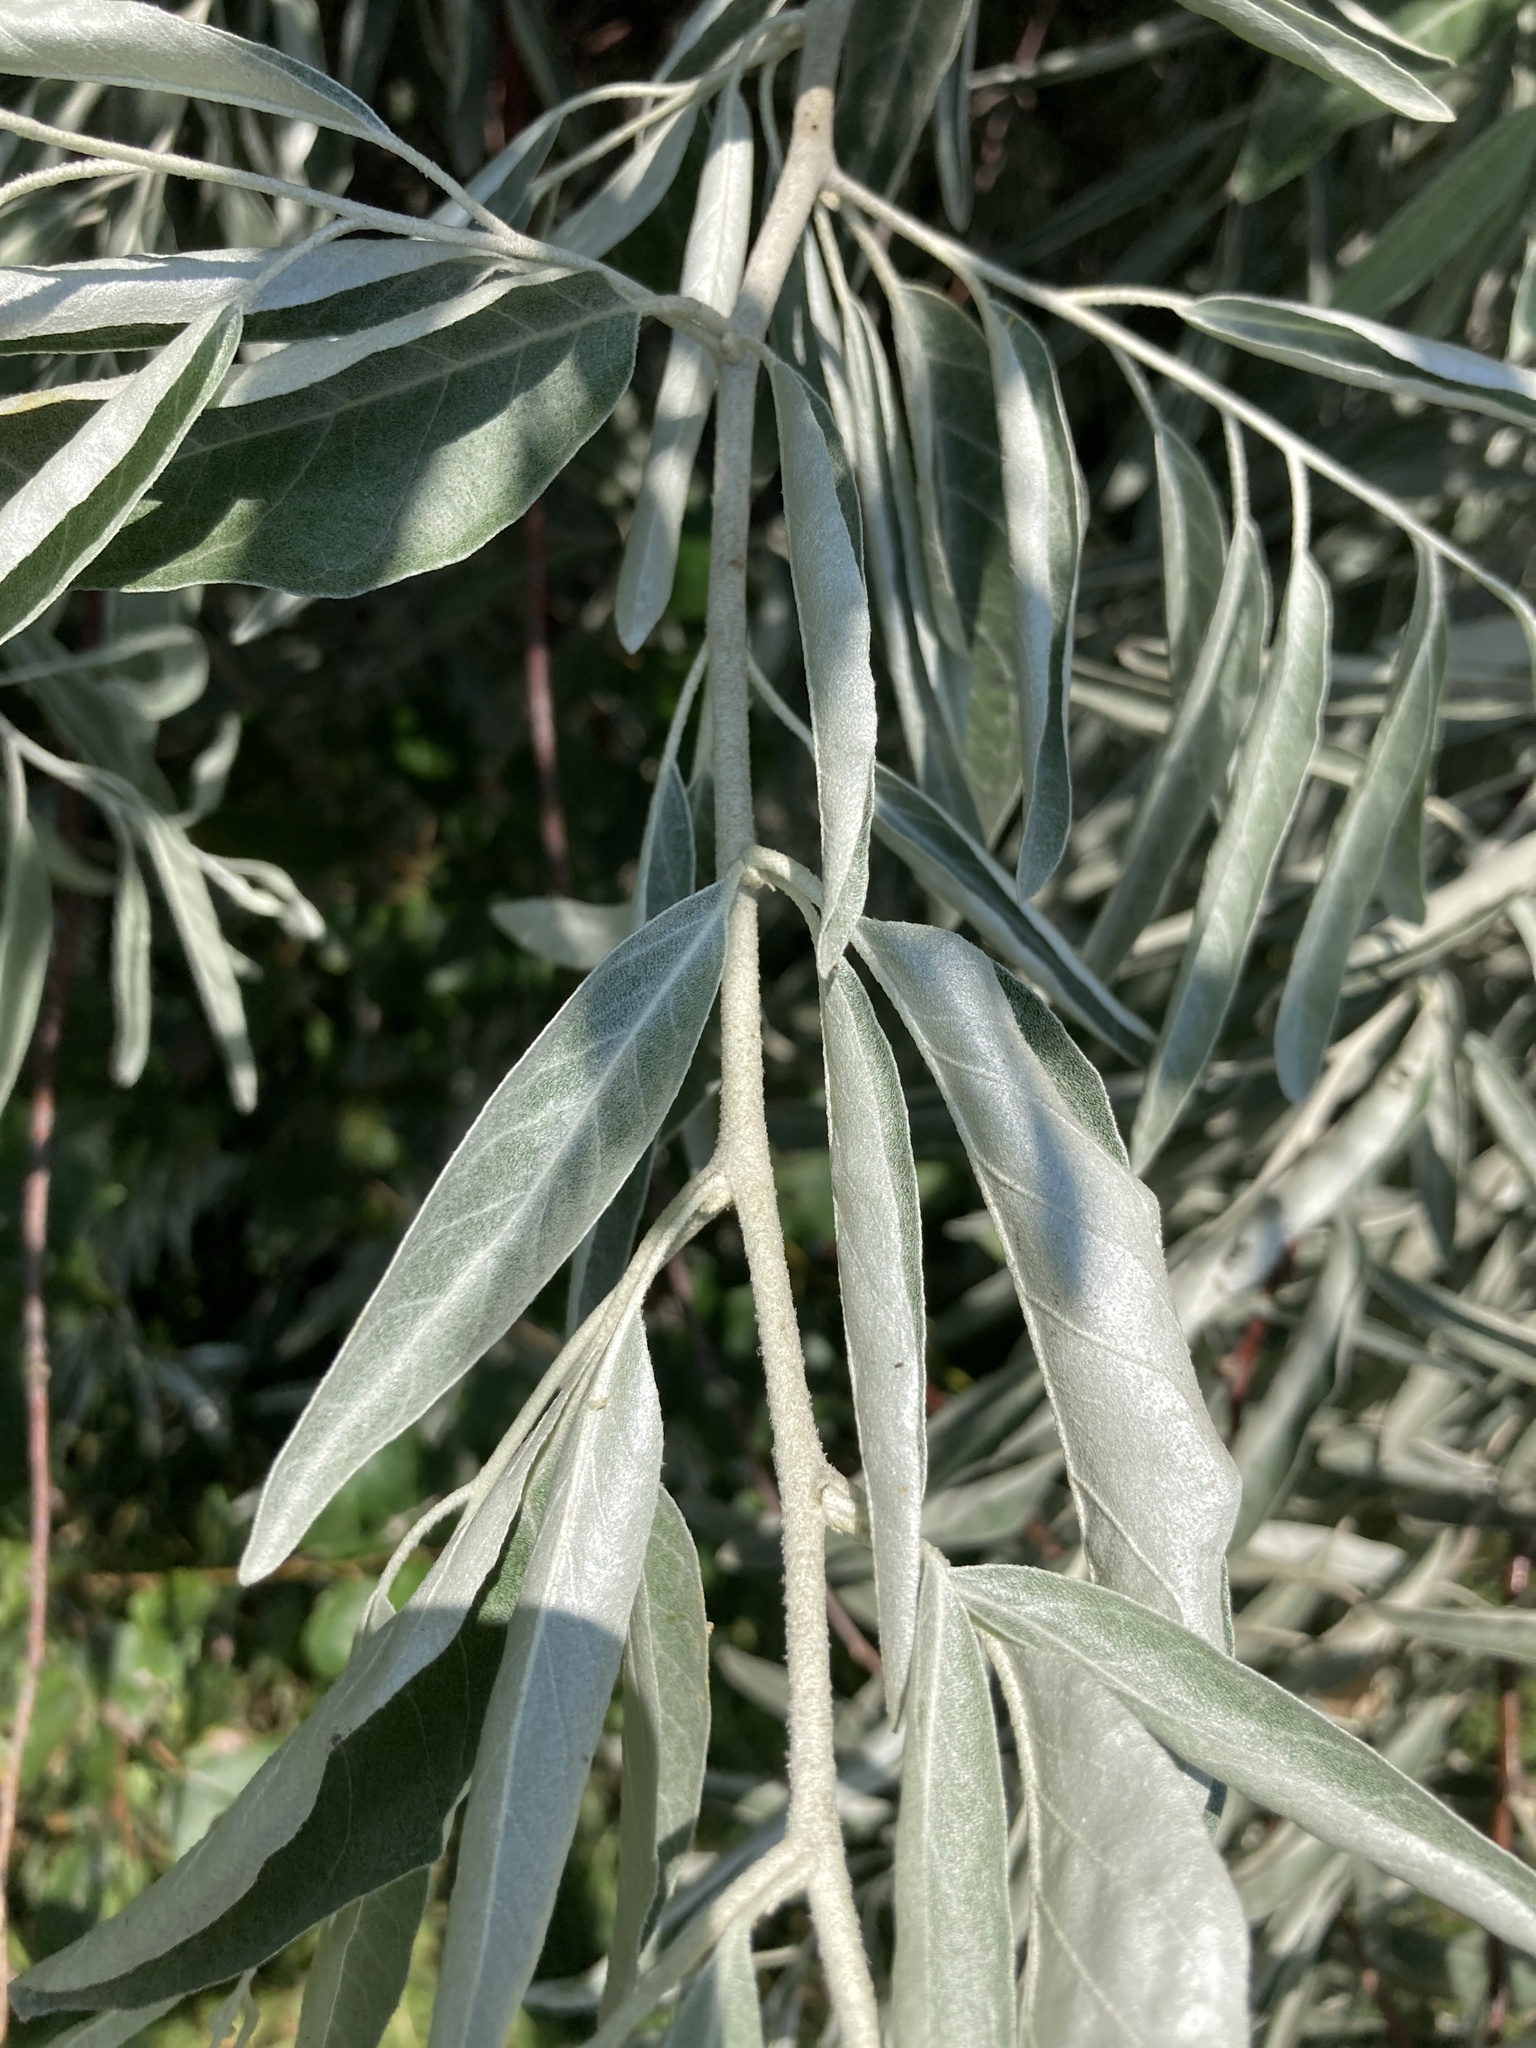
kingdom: Plantae
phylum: Tracheophyta
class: Magnoliopsida
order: Rosales
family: Elaeagnaceae
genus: Elaeagnus
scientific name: Elaeagnus angustifolia
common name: Russian olive
